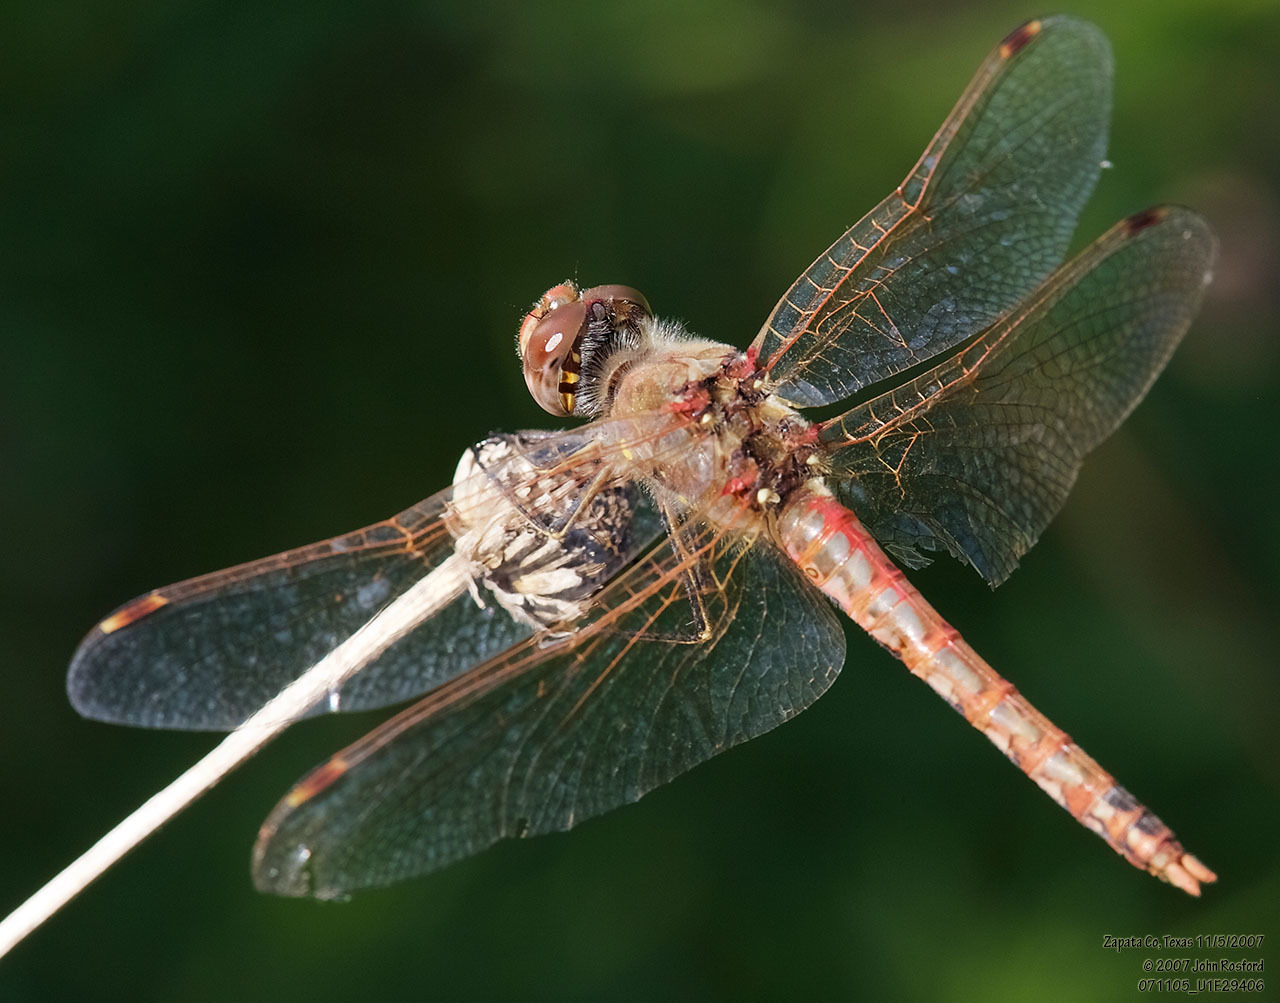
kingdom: Animalia
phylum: Arthropoda
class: Insecta
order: Odonata
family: Libellulidae
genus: Sympetrum
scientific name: Sympetrum corruptum
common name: Variegated meadowhawk
